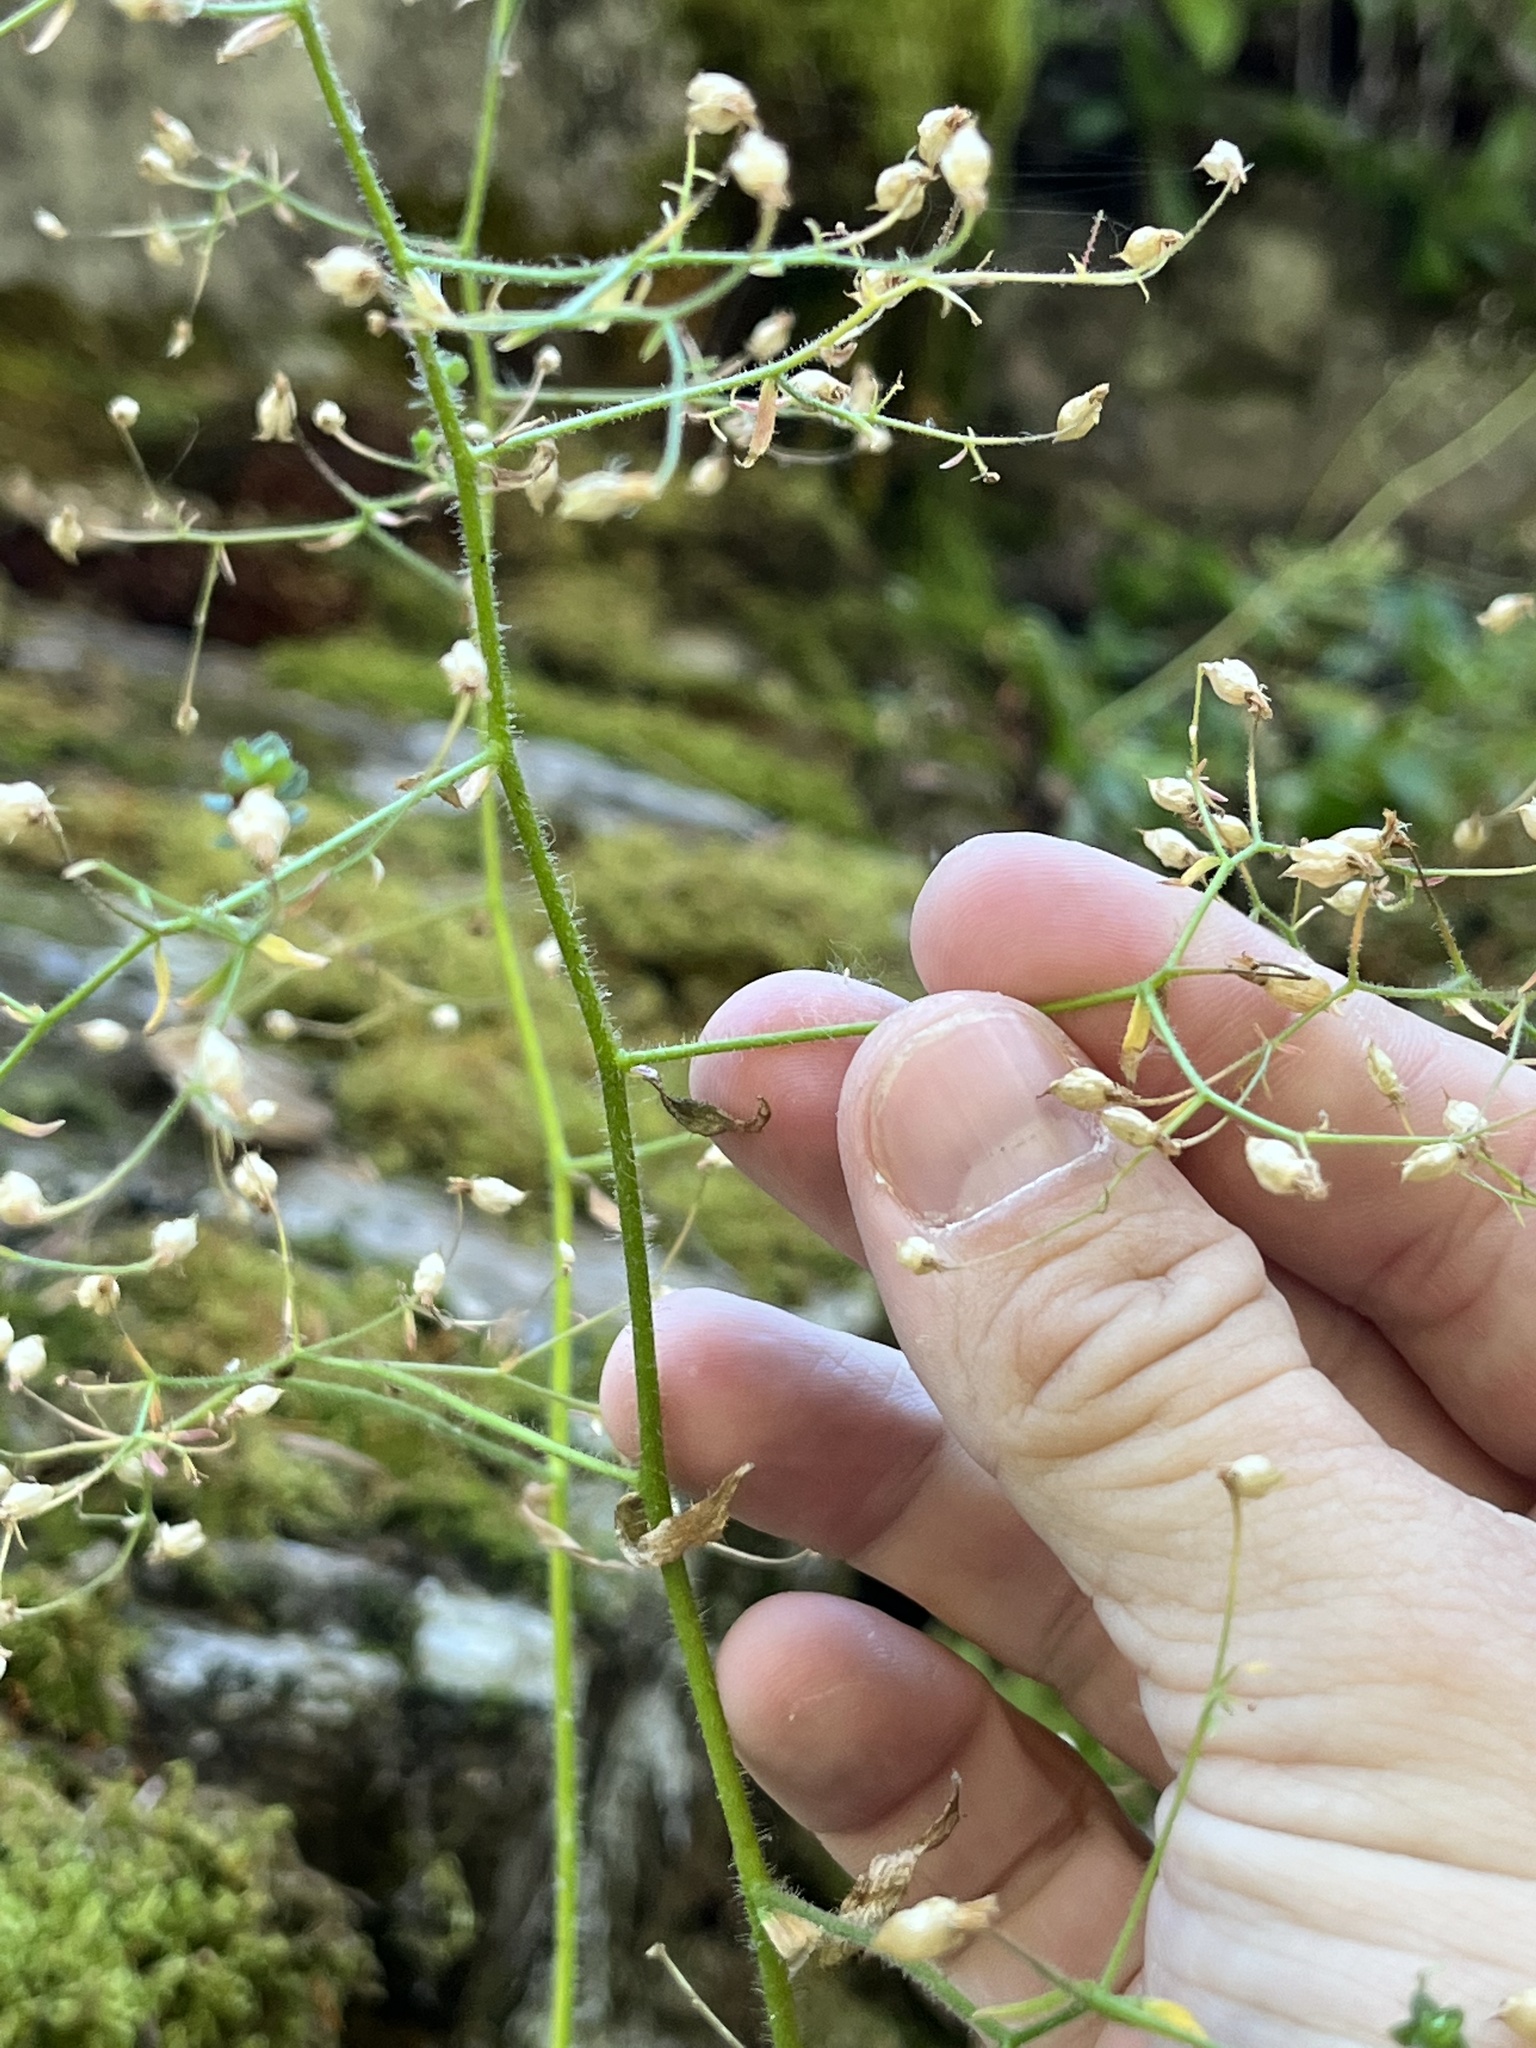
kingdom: Plantae
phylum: Tracheophyta
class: Magnoliopsida
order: Saxifragales
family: Saxifragaceae
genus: Micranthes
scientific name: Micranthes ferruginea
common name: Rusty saxifrage
